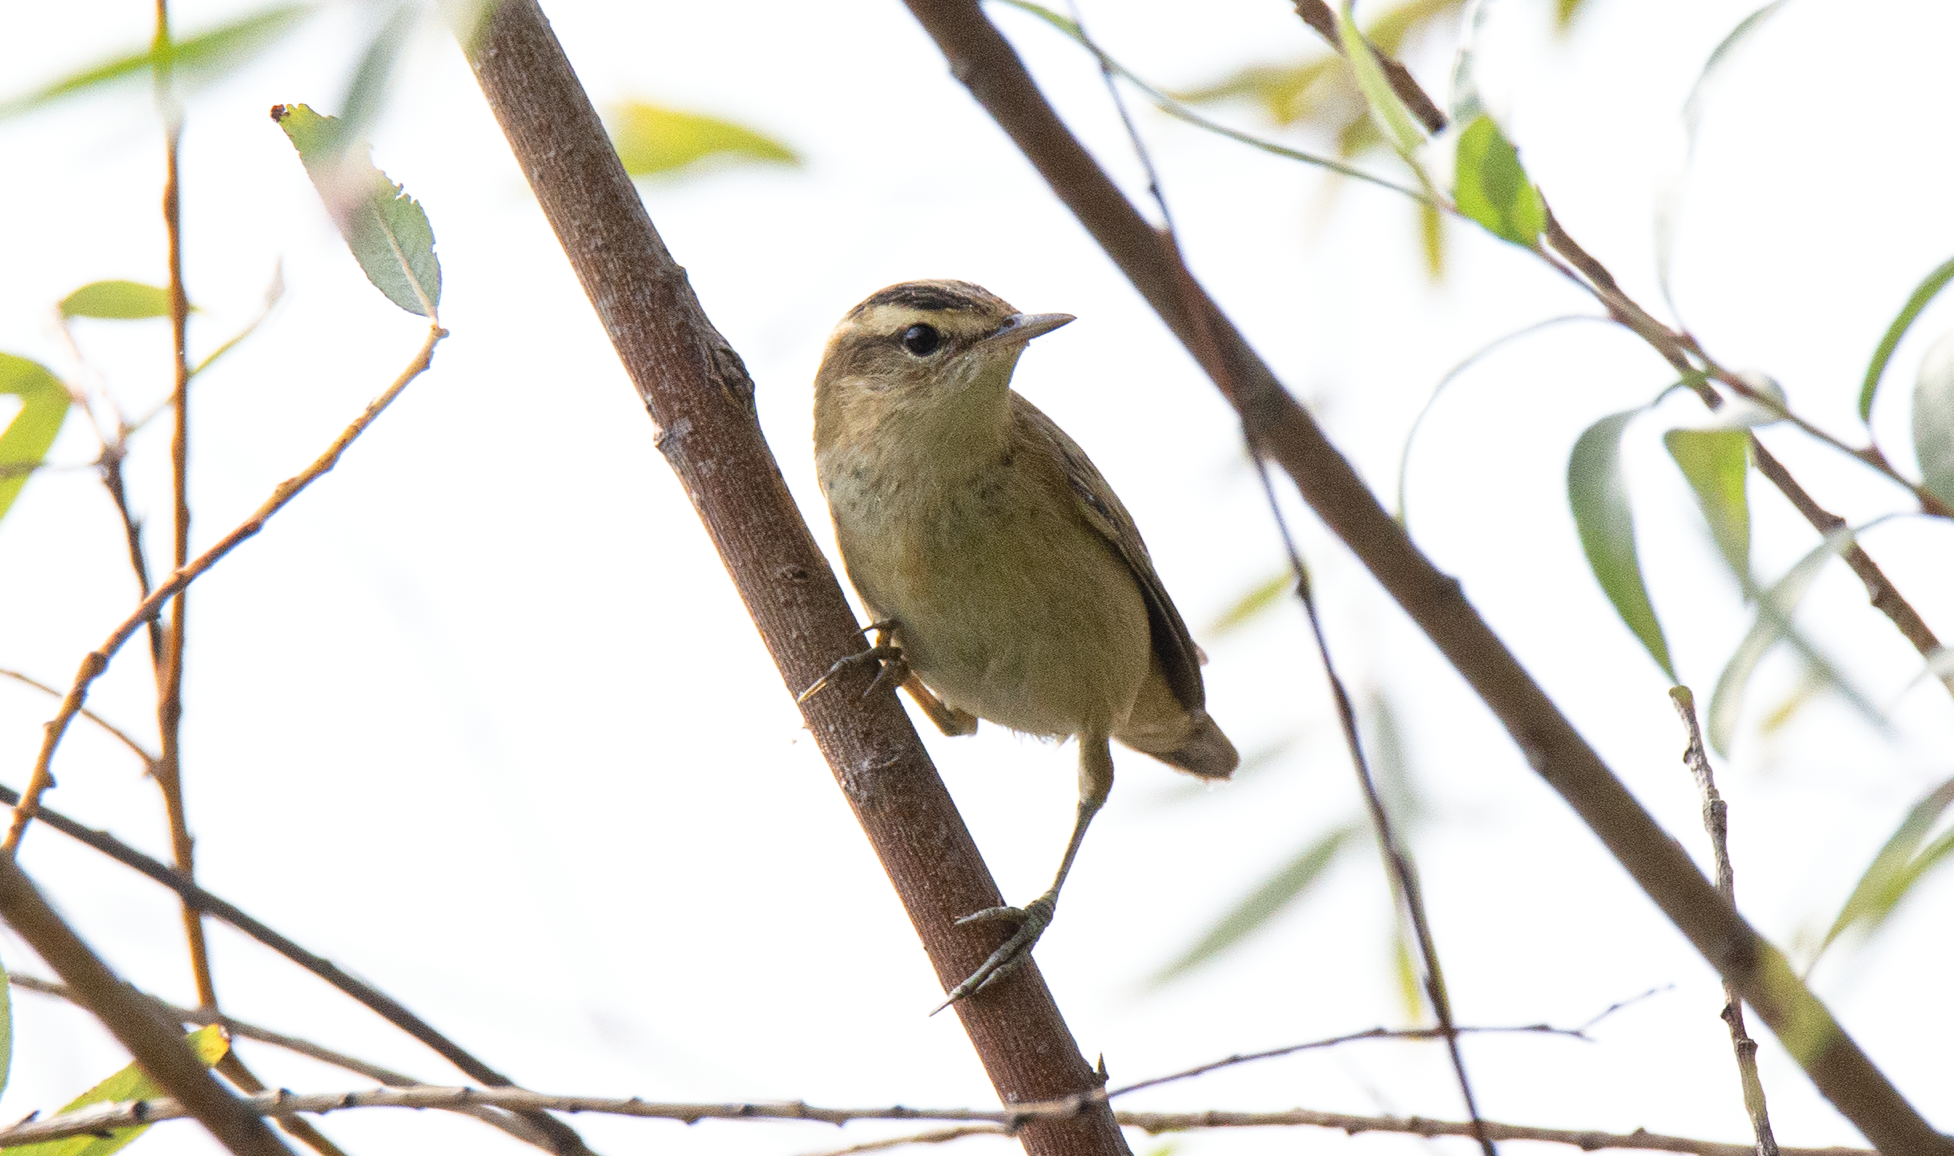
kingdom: Animalia
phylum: Chordata
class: Aves
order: Passeriformes
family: Acrocephalidae
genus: Acrocephalus
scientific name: Acrocephalus schoenobaenus
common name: Sedge warbler
